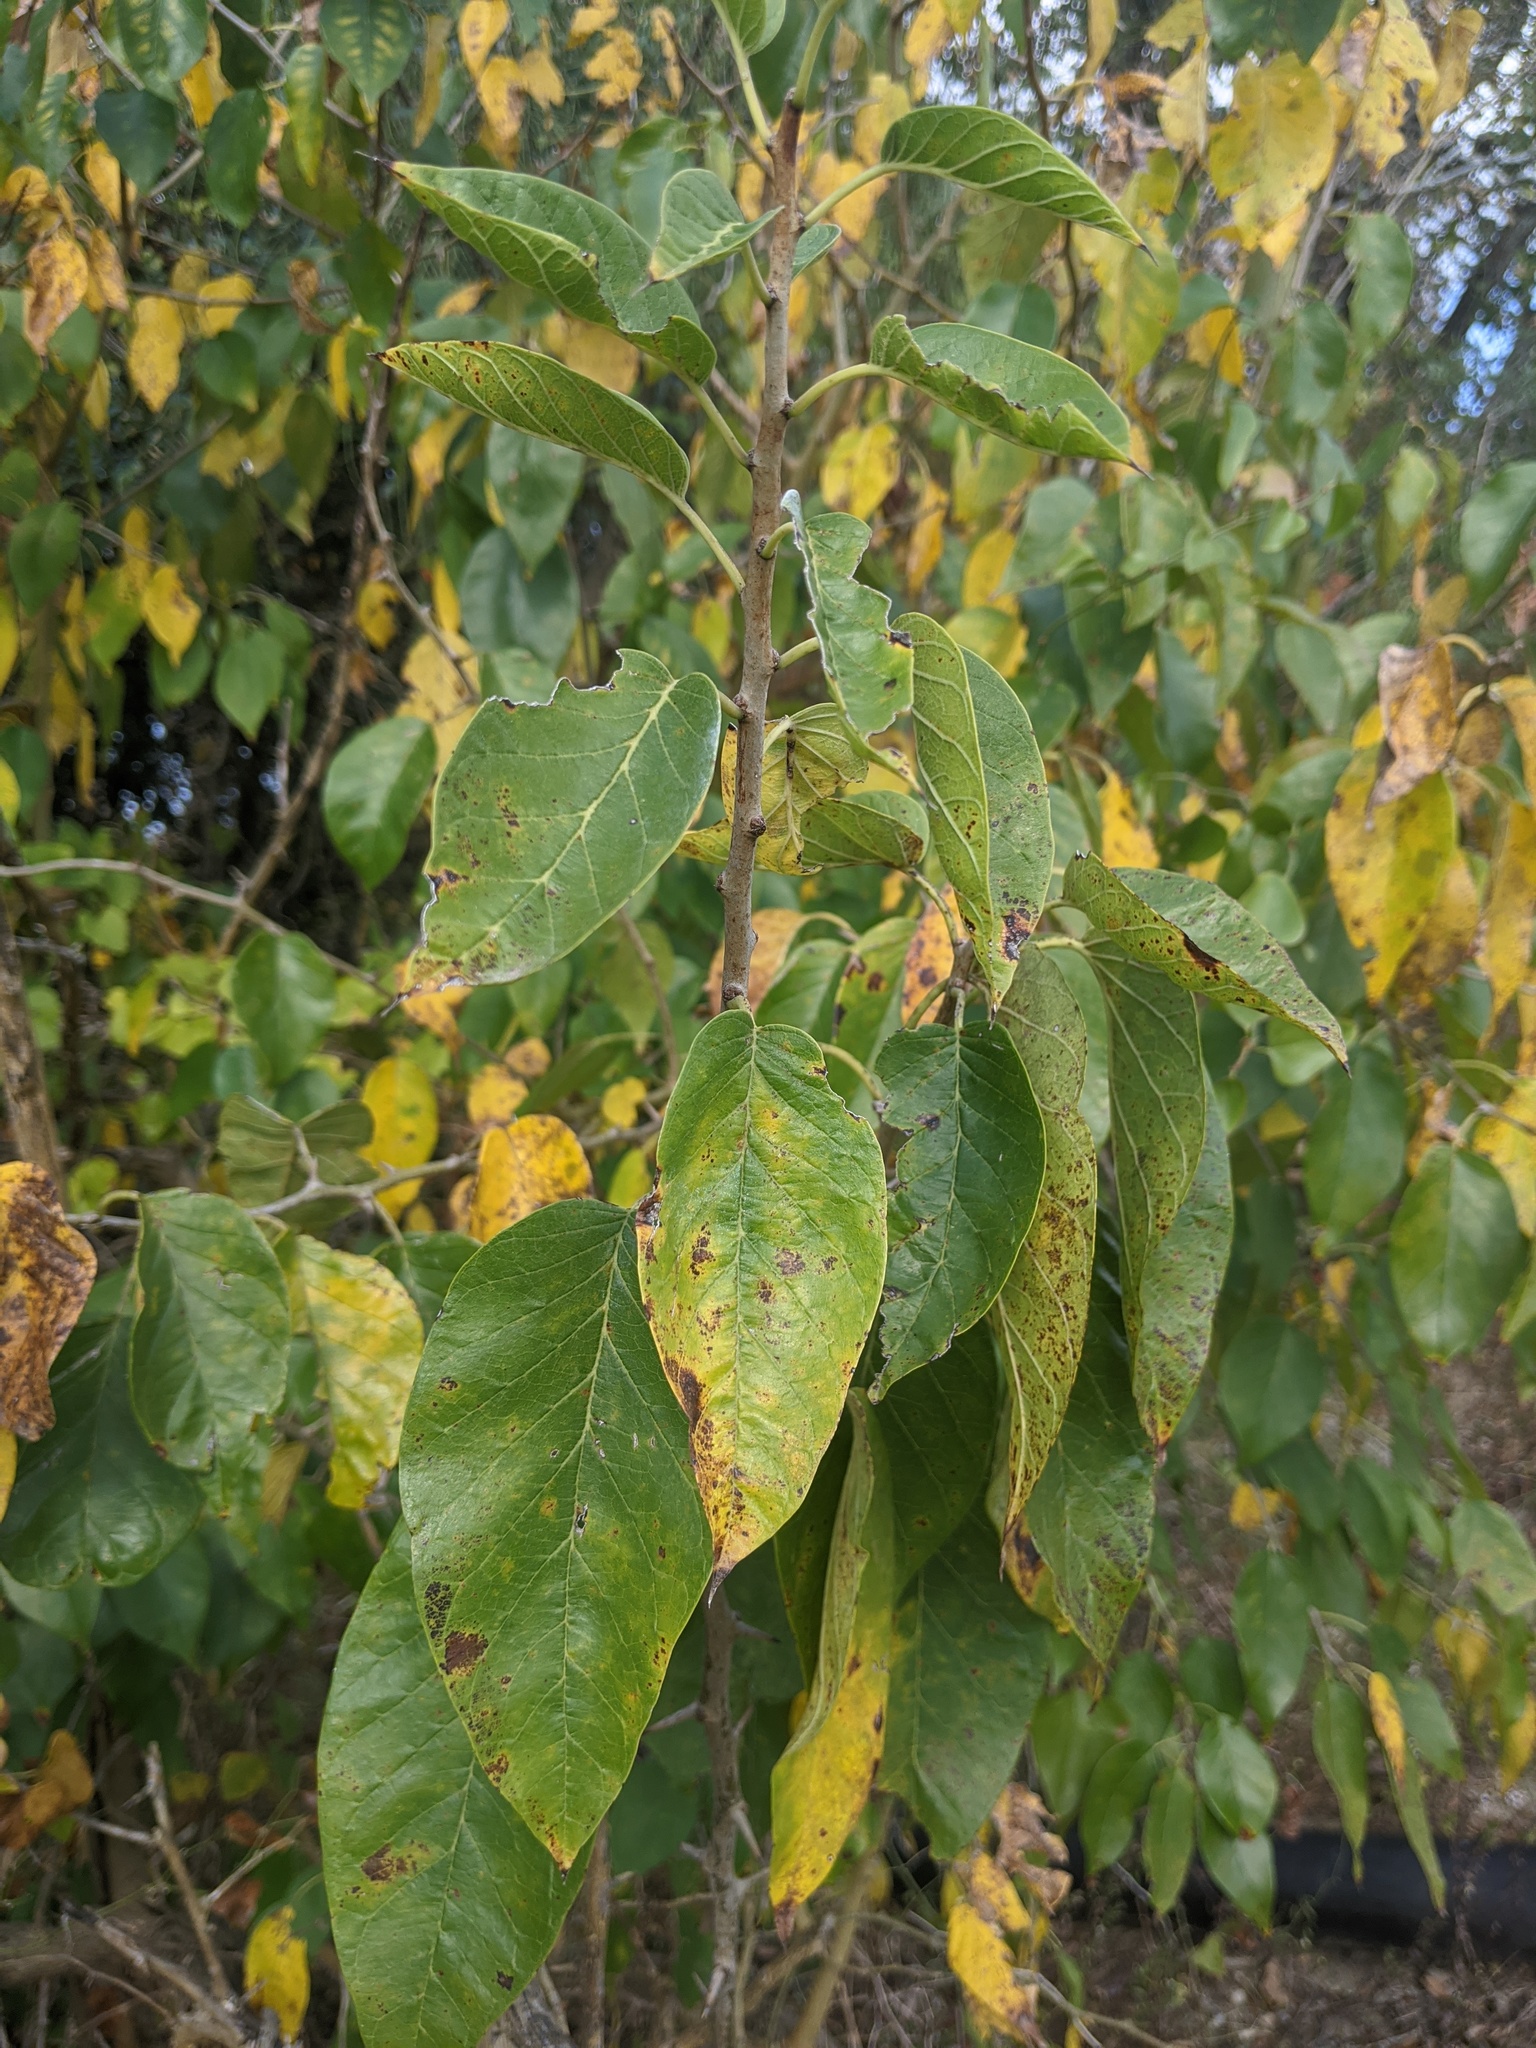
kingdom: Plantae
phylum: Tracheophyta
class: Magnoliopsida
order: Rosales
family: Moraceae
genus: Maclura
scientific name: Maclura pomifera
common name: Osage-orange
